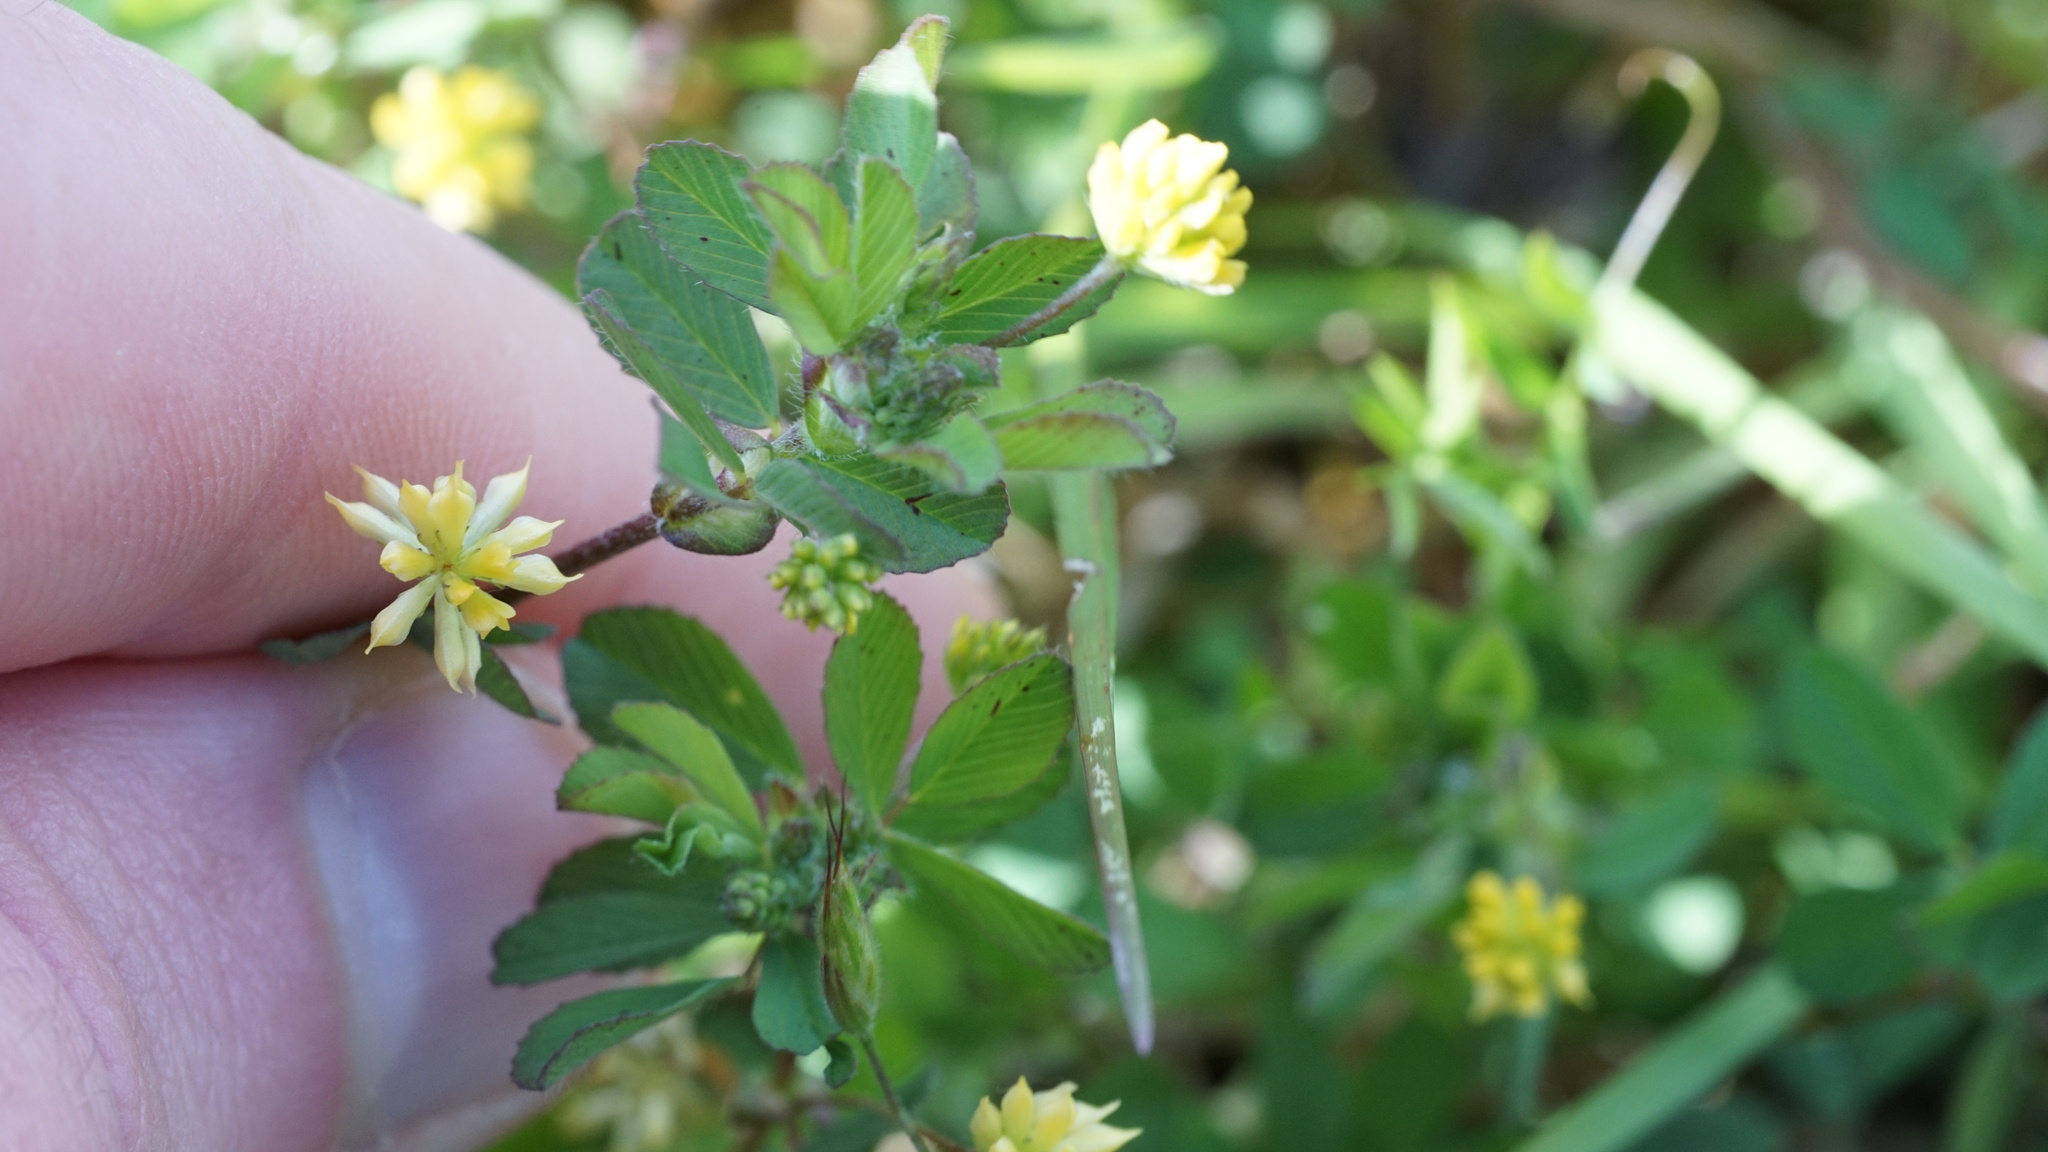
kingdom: Plantae
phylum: Tracheophyta
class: Magnoliopsida
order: Fabales
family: Fabaceae
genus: Trifolium
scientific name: Trifolium dubium
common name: Suckling clover
